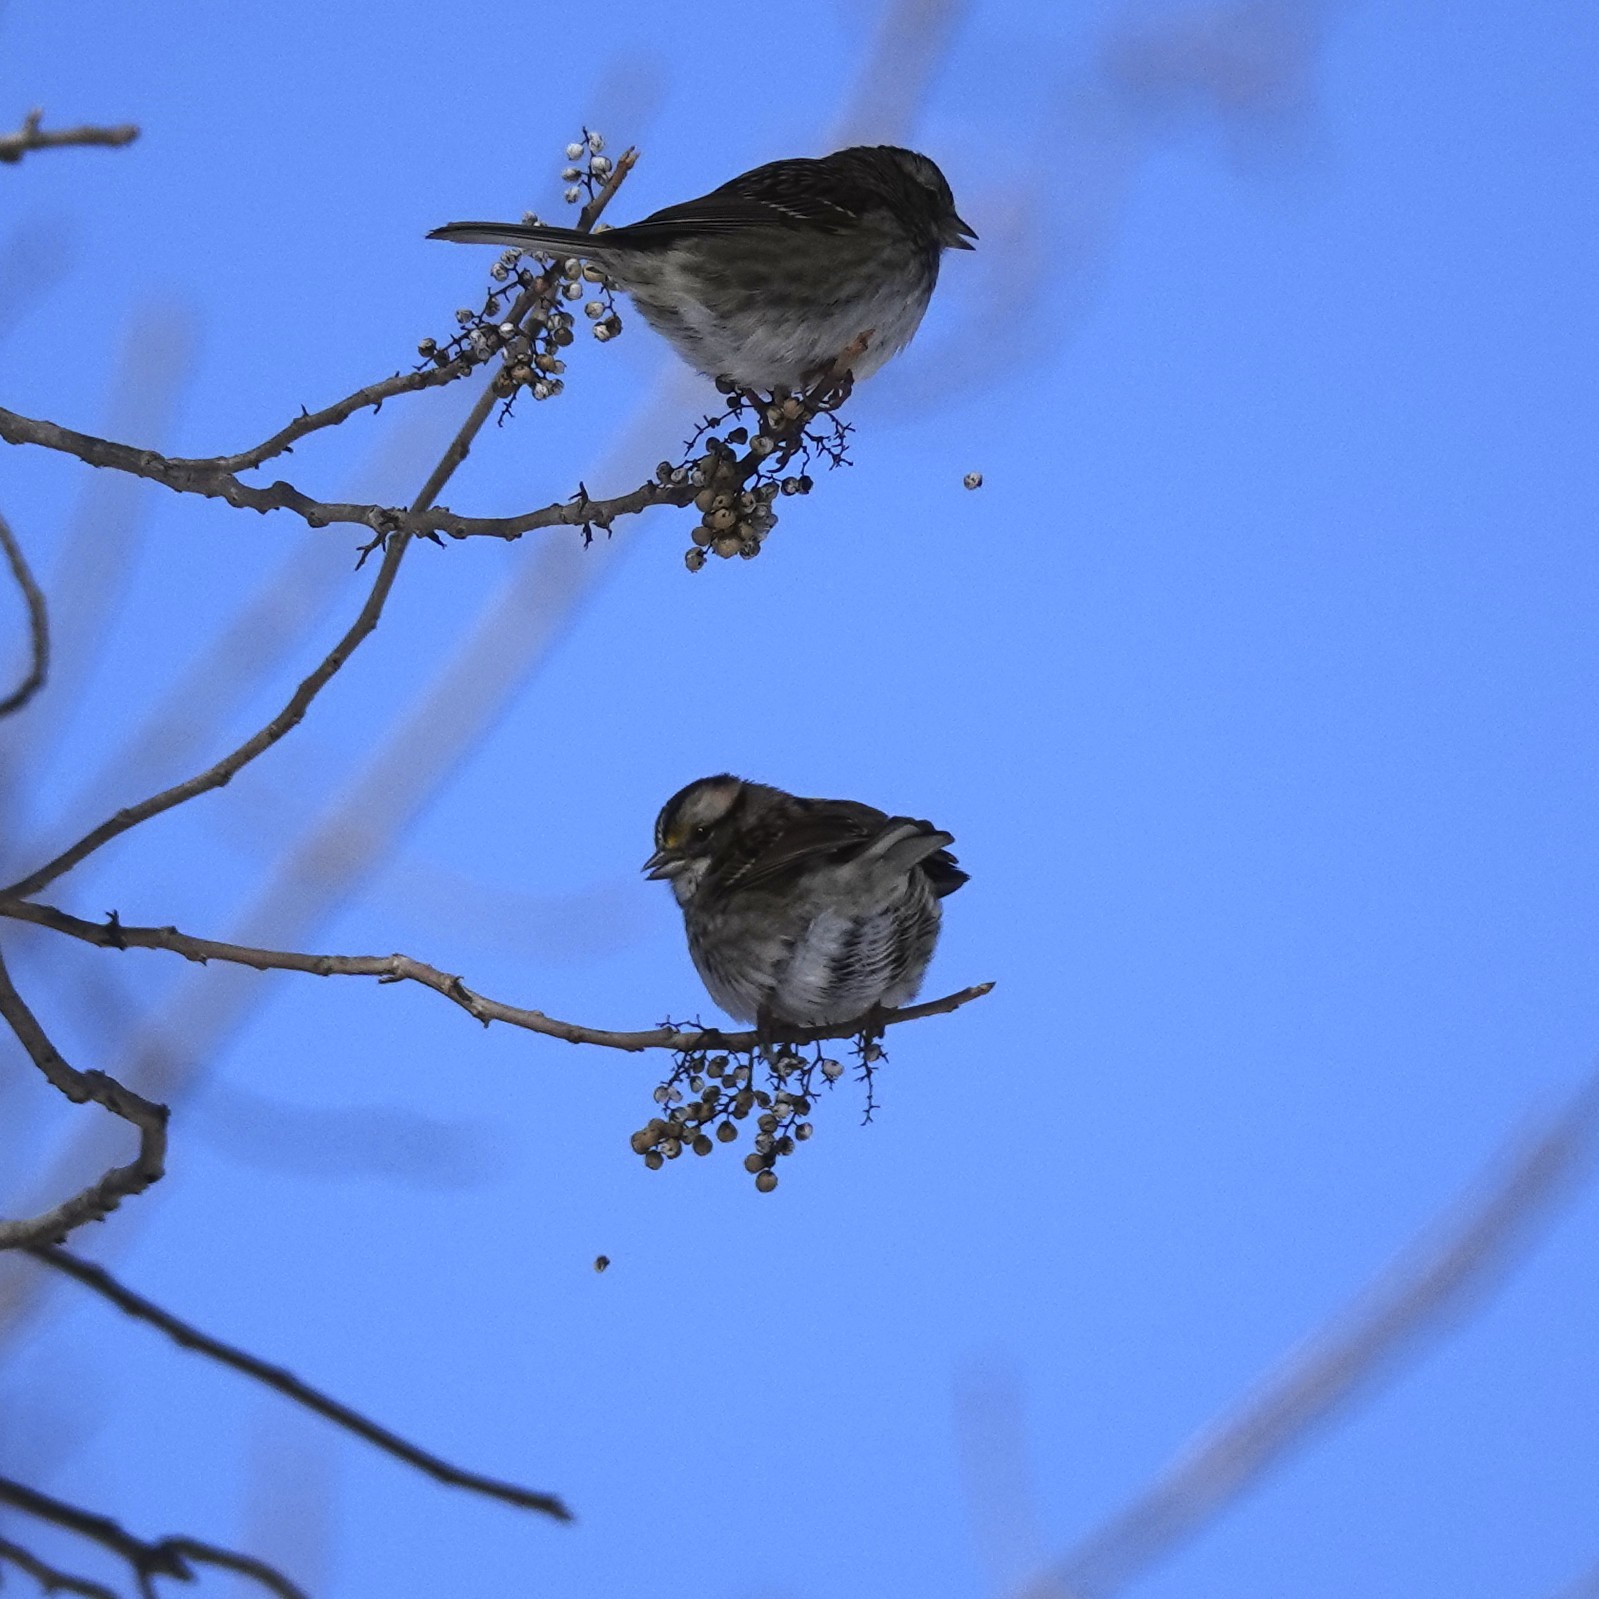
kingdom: Animalia
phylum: Chordata
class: Aves
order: Passeriformes
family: Passerellidae
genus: Zonotrichia
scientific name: Zonotrichia albicollis
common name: White-throated sparrow
